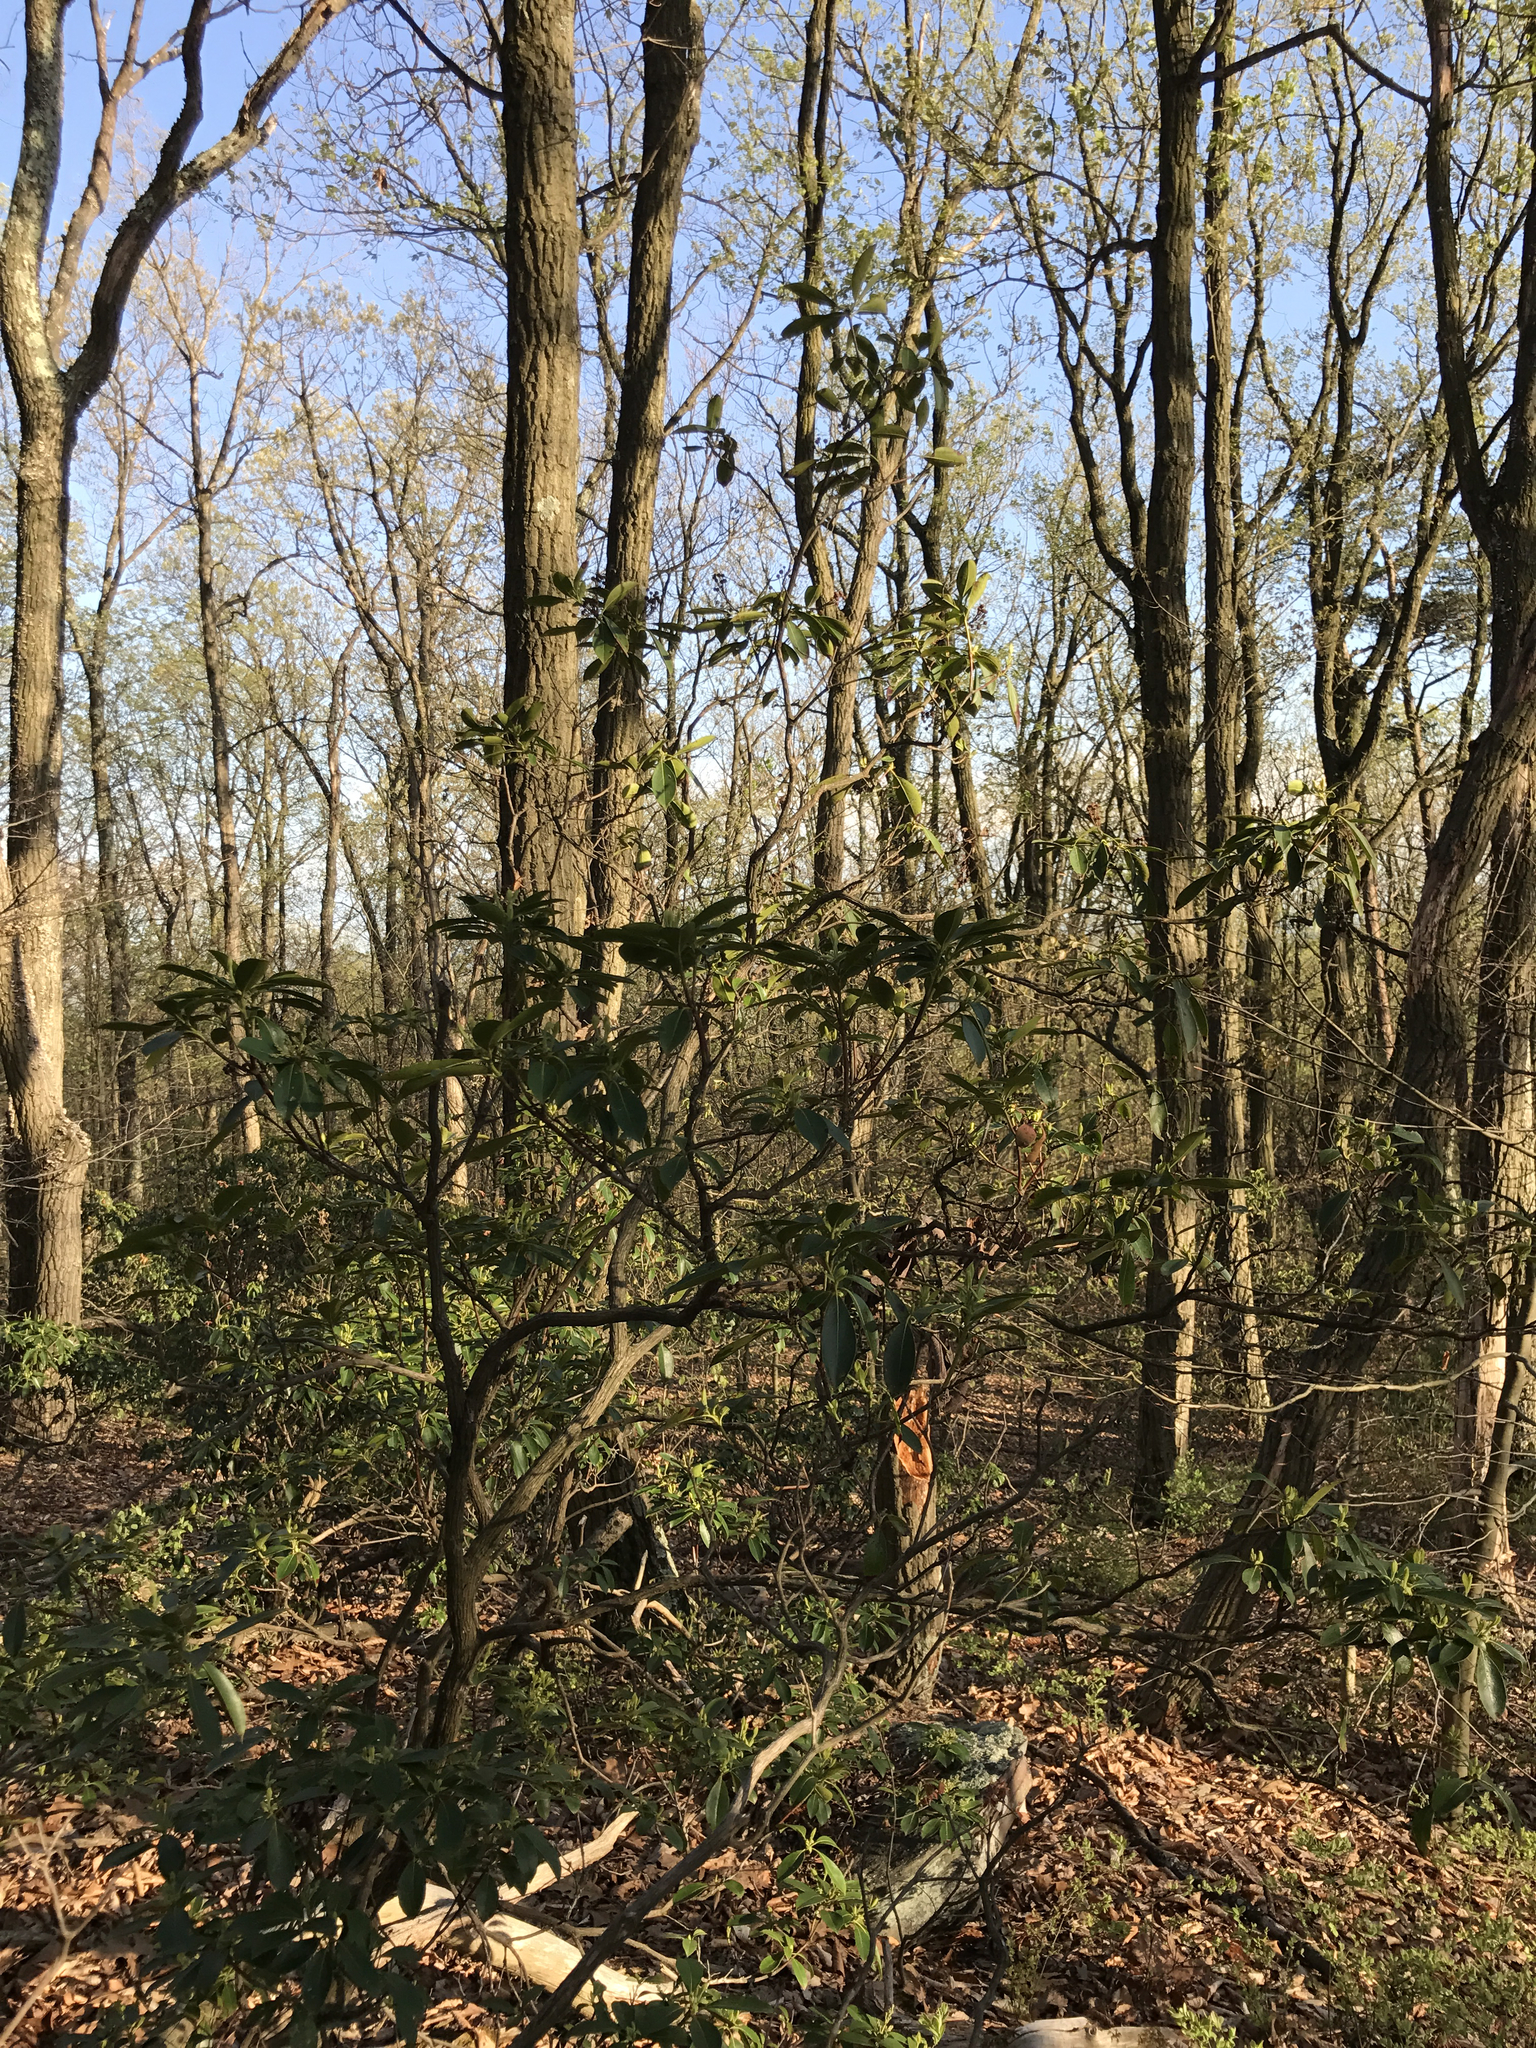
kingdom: Plantae
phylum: Tracheophyta
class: Magnoliopsida
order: Ericales
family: Ericaceae
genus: Kalmia
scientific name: Kalmia latifolia
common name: Mountain-laurel
